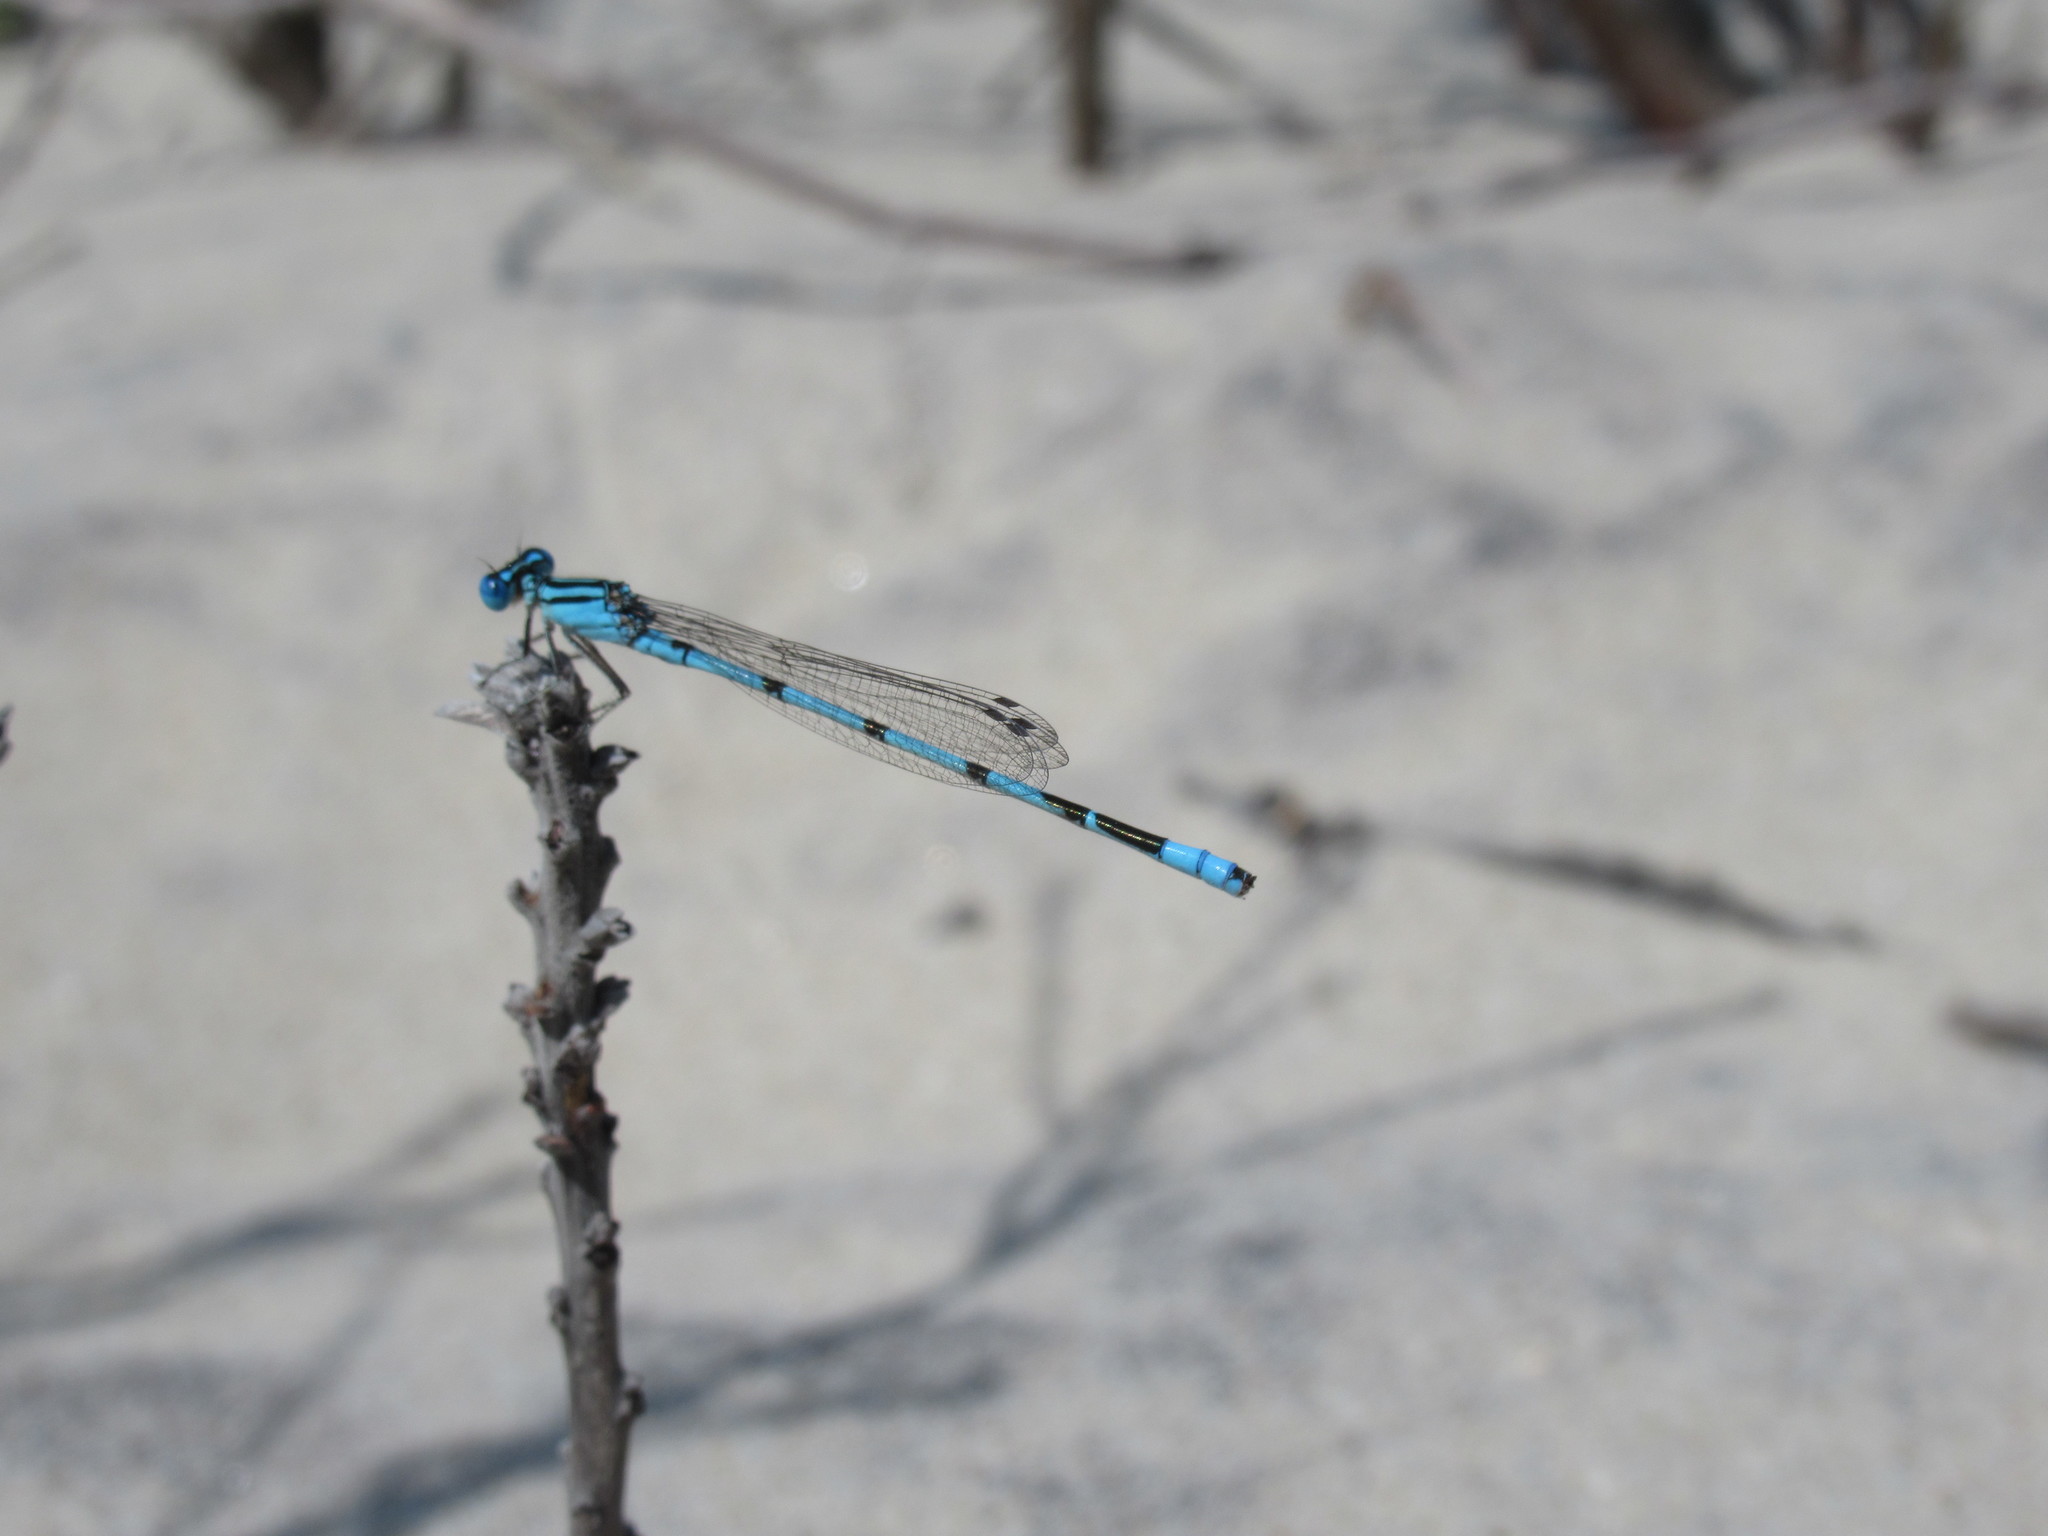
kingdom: Animalia
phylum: Arthropoda
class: Insecta
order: Odonata
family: Coenagrionidae
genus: Enallagma
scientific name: Enallagma durum
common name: Big bluet
